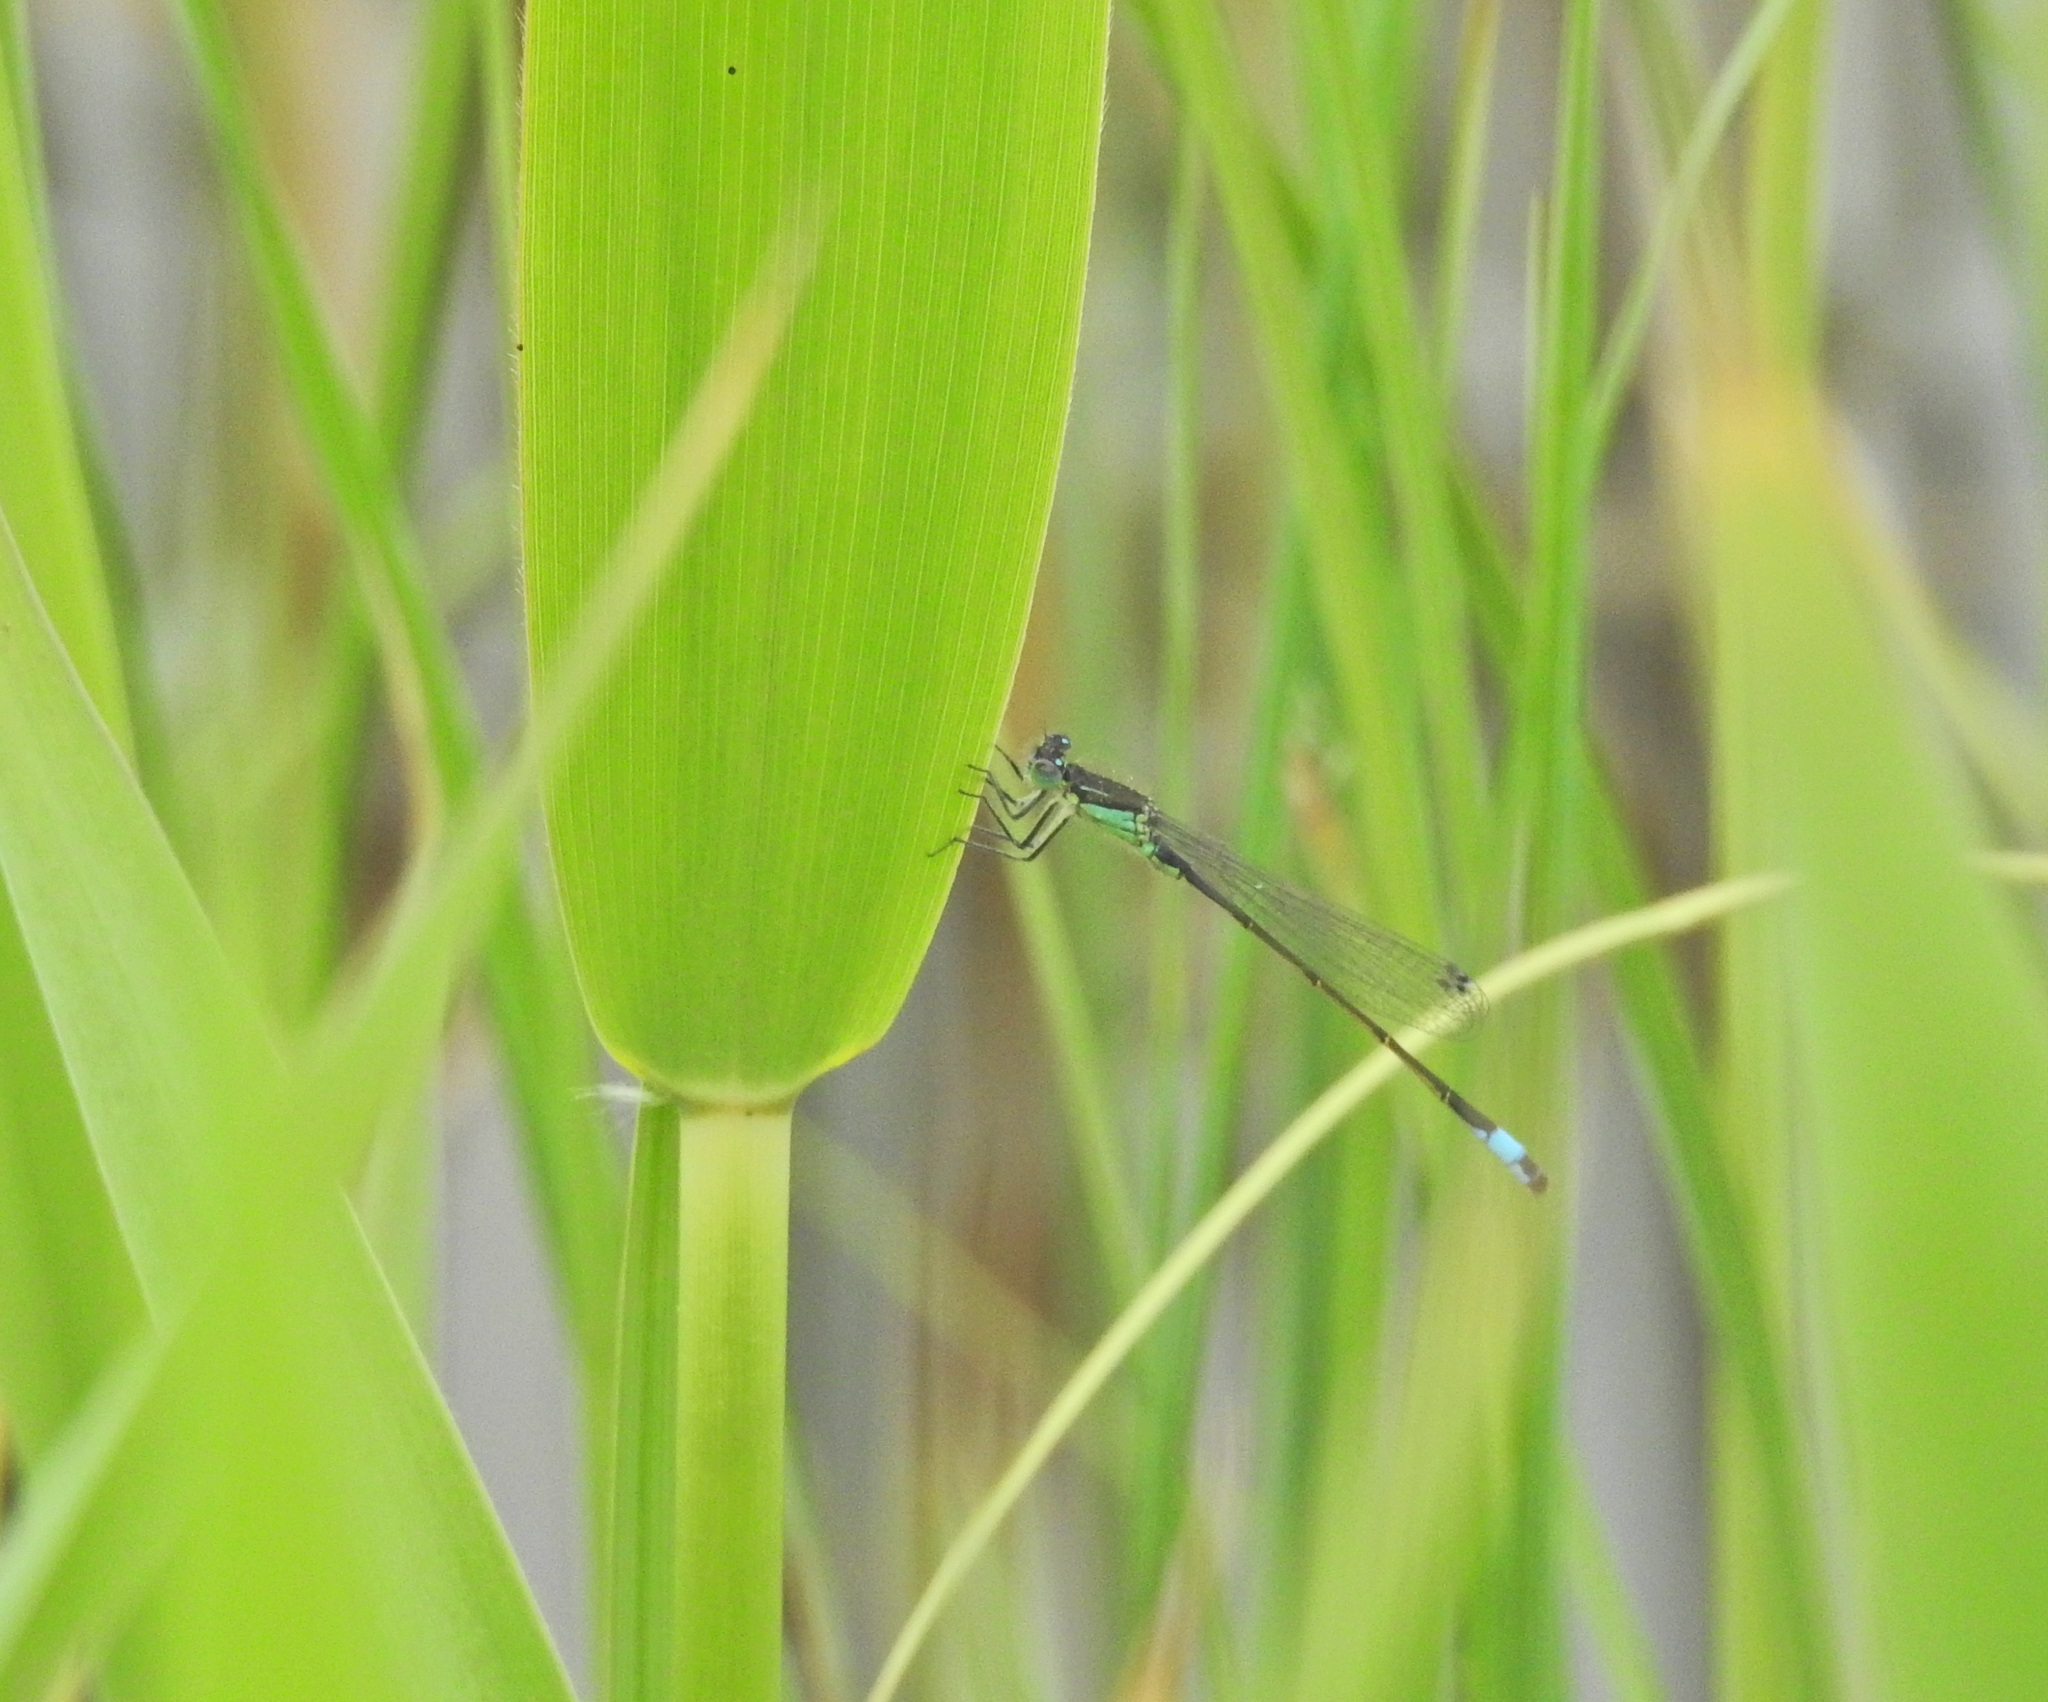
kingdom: Animalia
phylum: Arthropoda
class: Insecta
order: Odonata
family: Coenagrionidae
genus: Ischnura
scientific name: Ischnura elegans
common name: Blue-tailed damselfly
